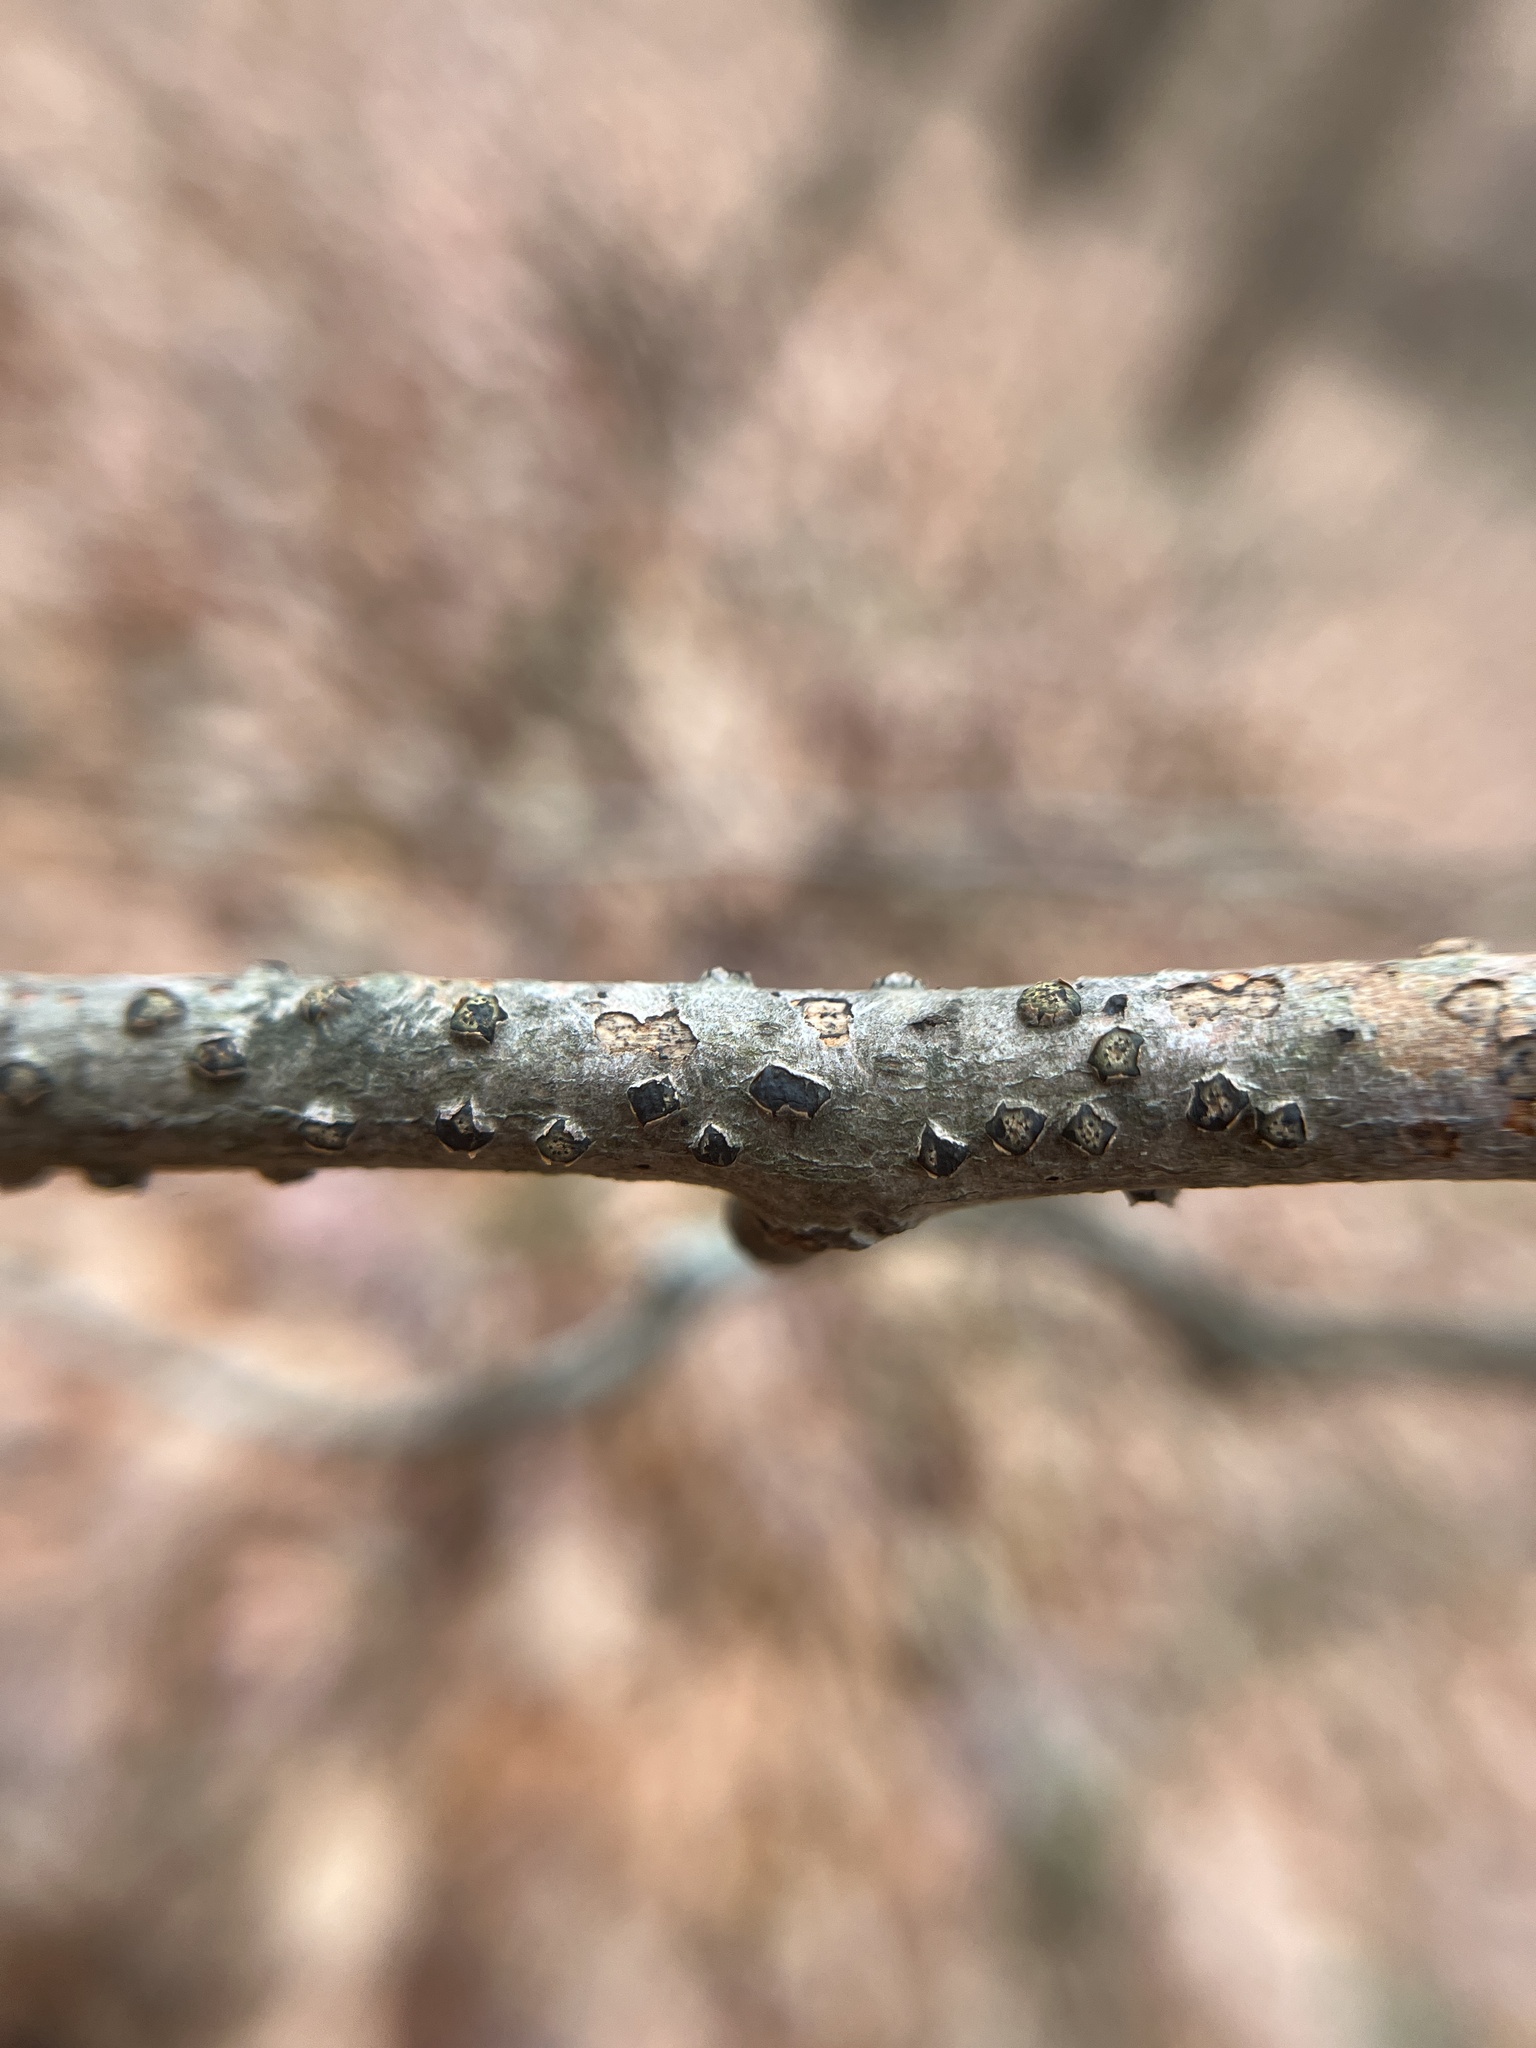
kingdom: Fungi
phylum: Ascomycota
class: Sordariomycetes
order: Xylariales
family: Diatrypaceae
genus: Diatrype
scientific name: Diatrype virescens
